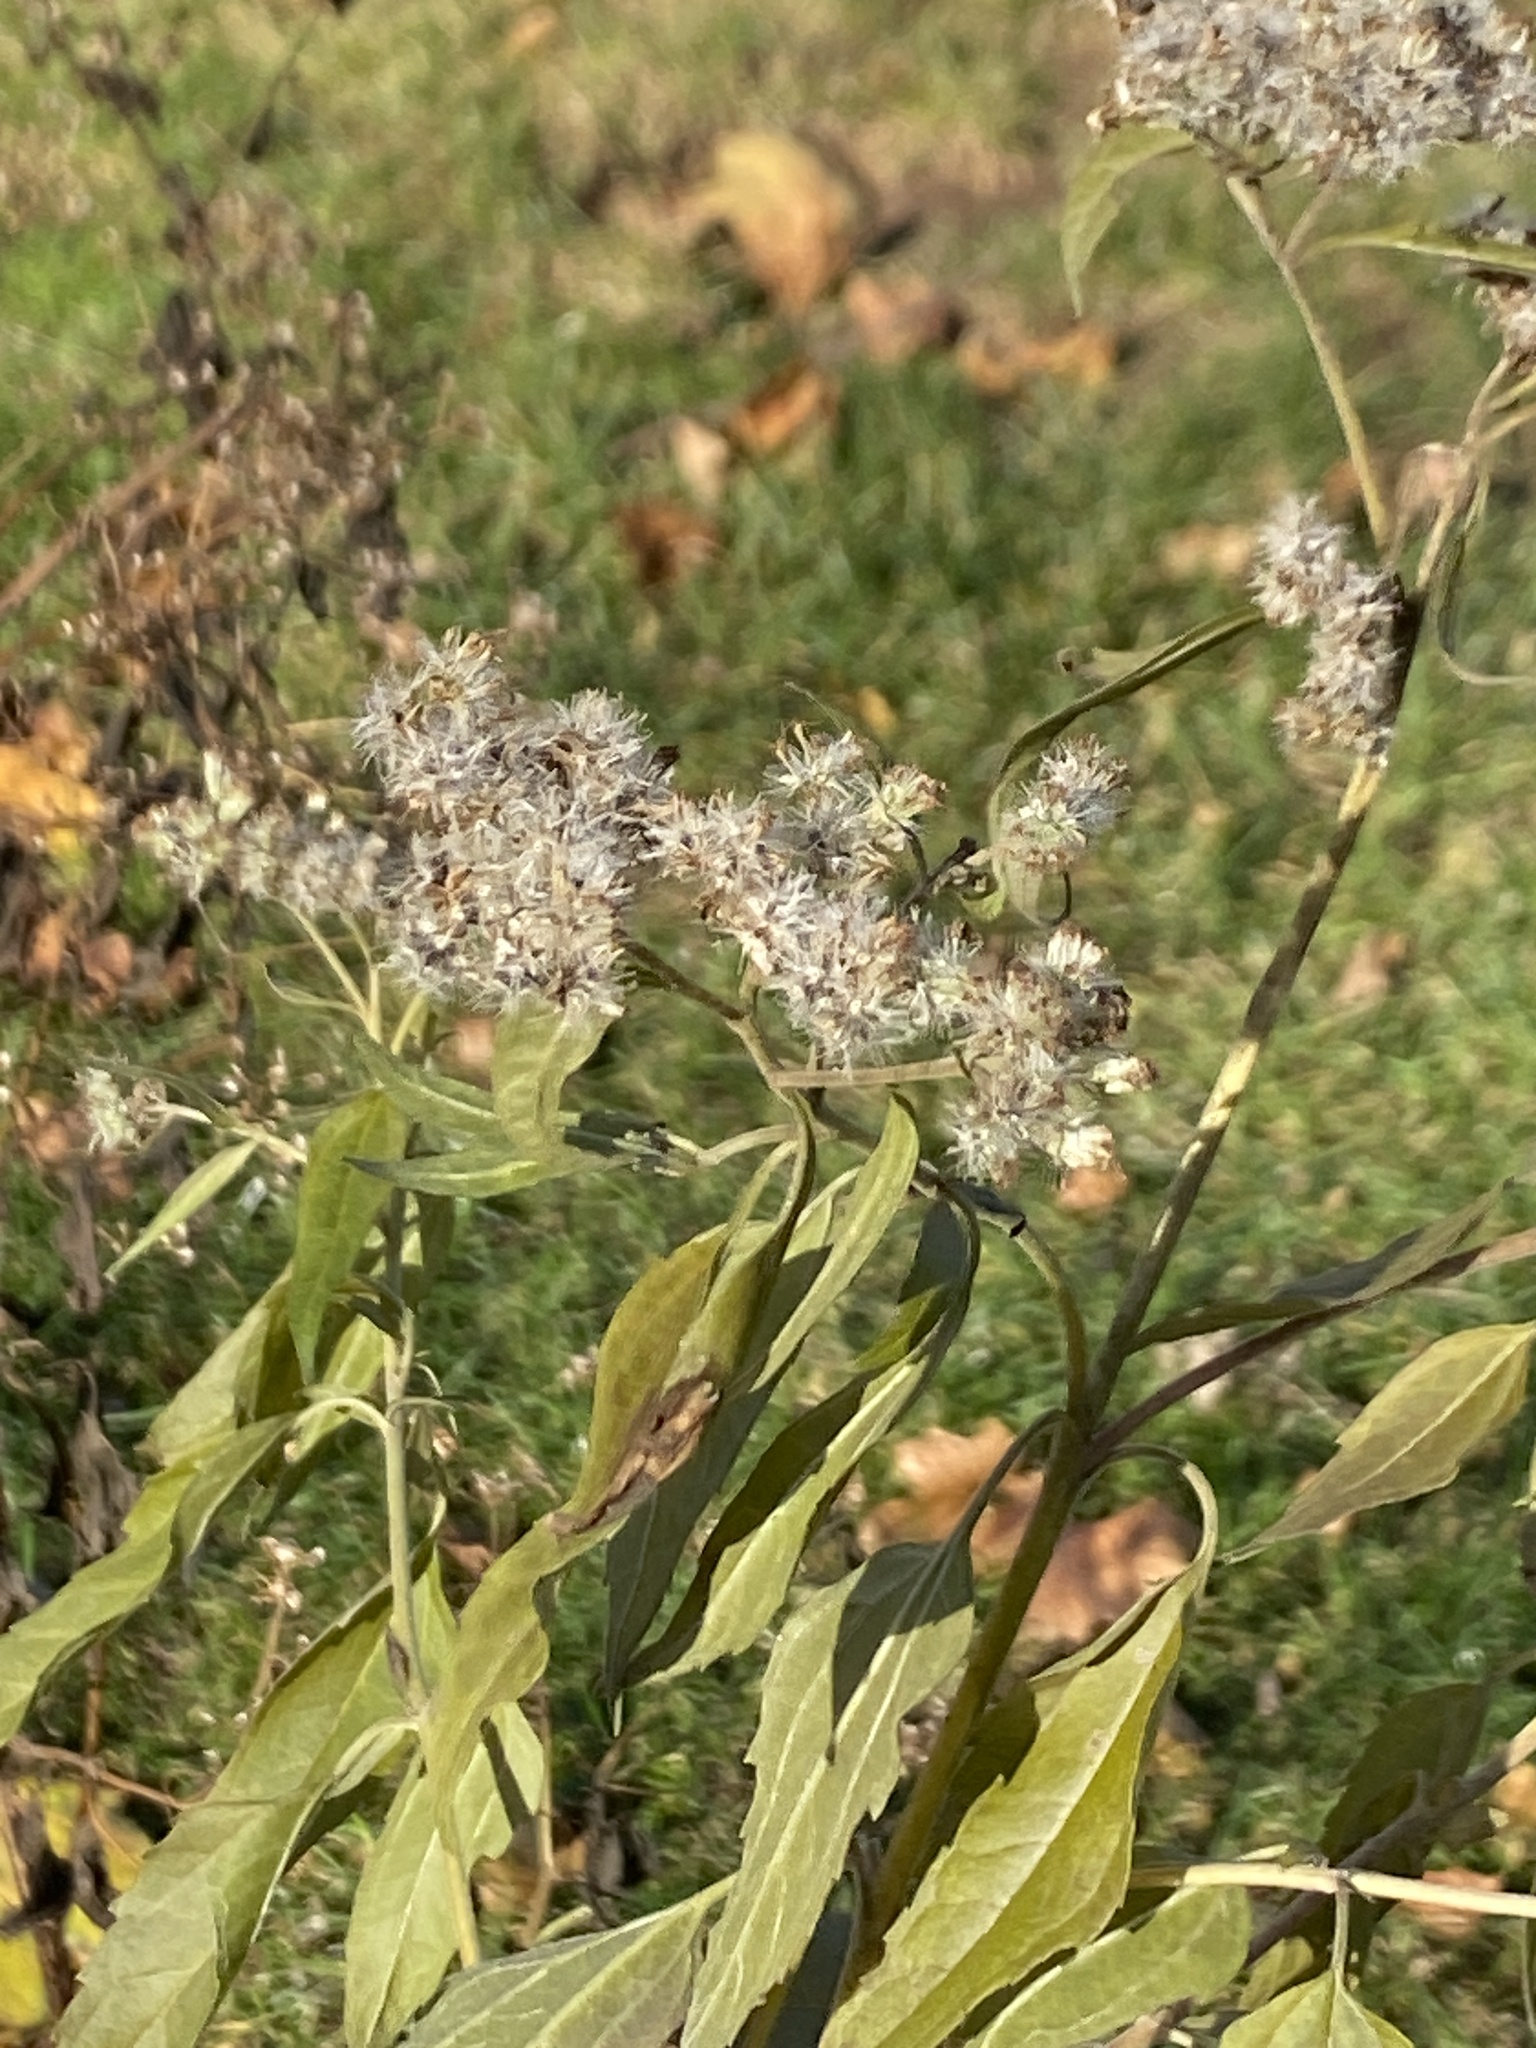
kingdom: Plantae
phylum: Tracheophyta
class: Magnoliopsida
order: Asterales
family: Asteraceae
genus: Eupatorium
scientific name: Eupatorium serotinum
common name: Late boneset
